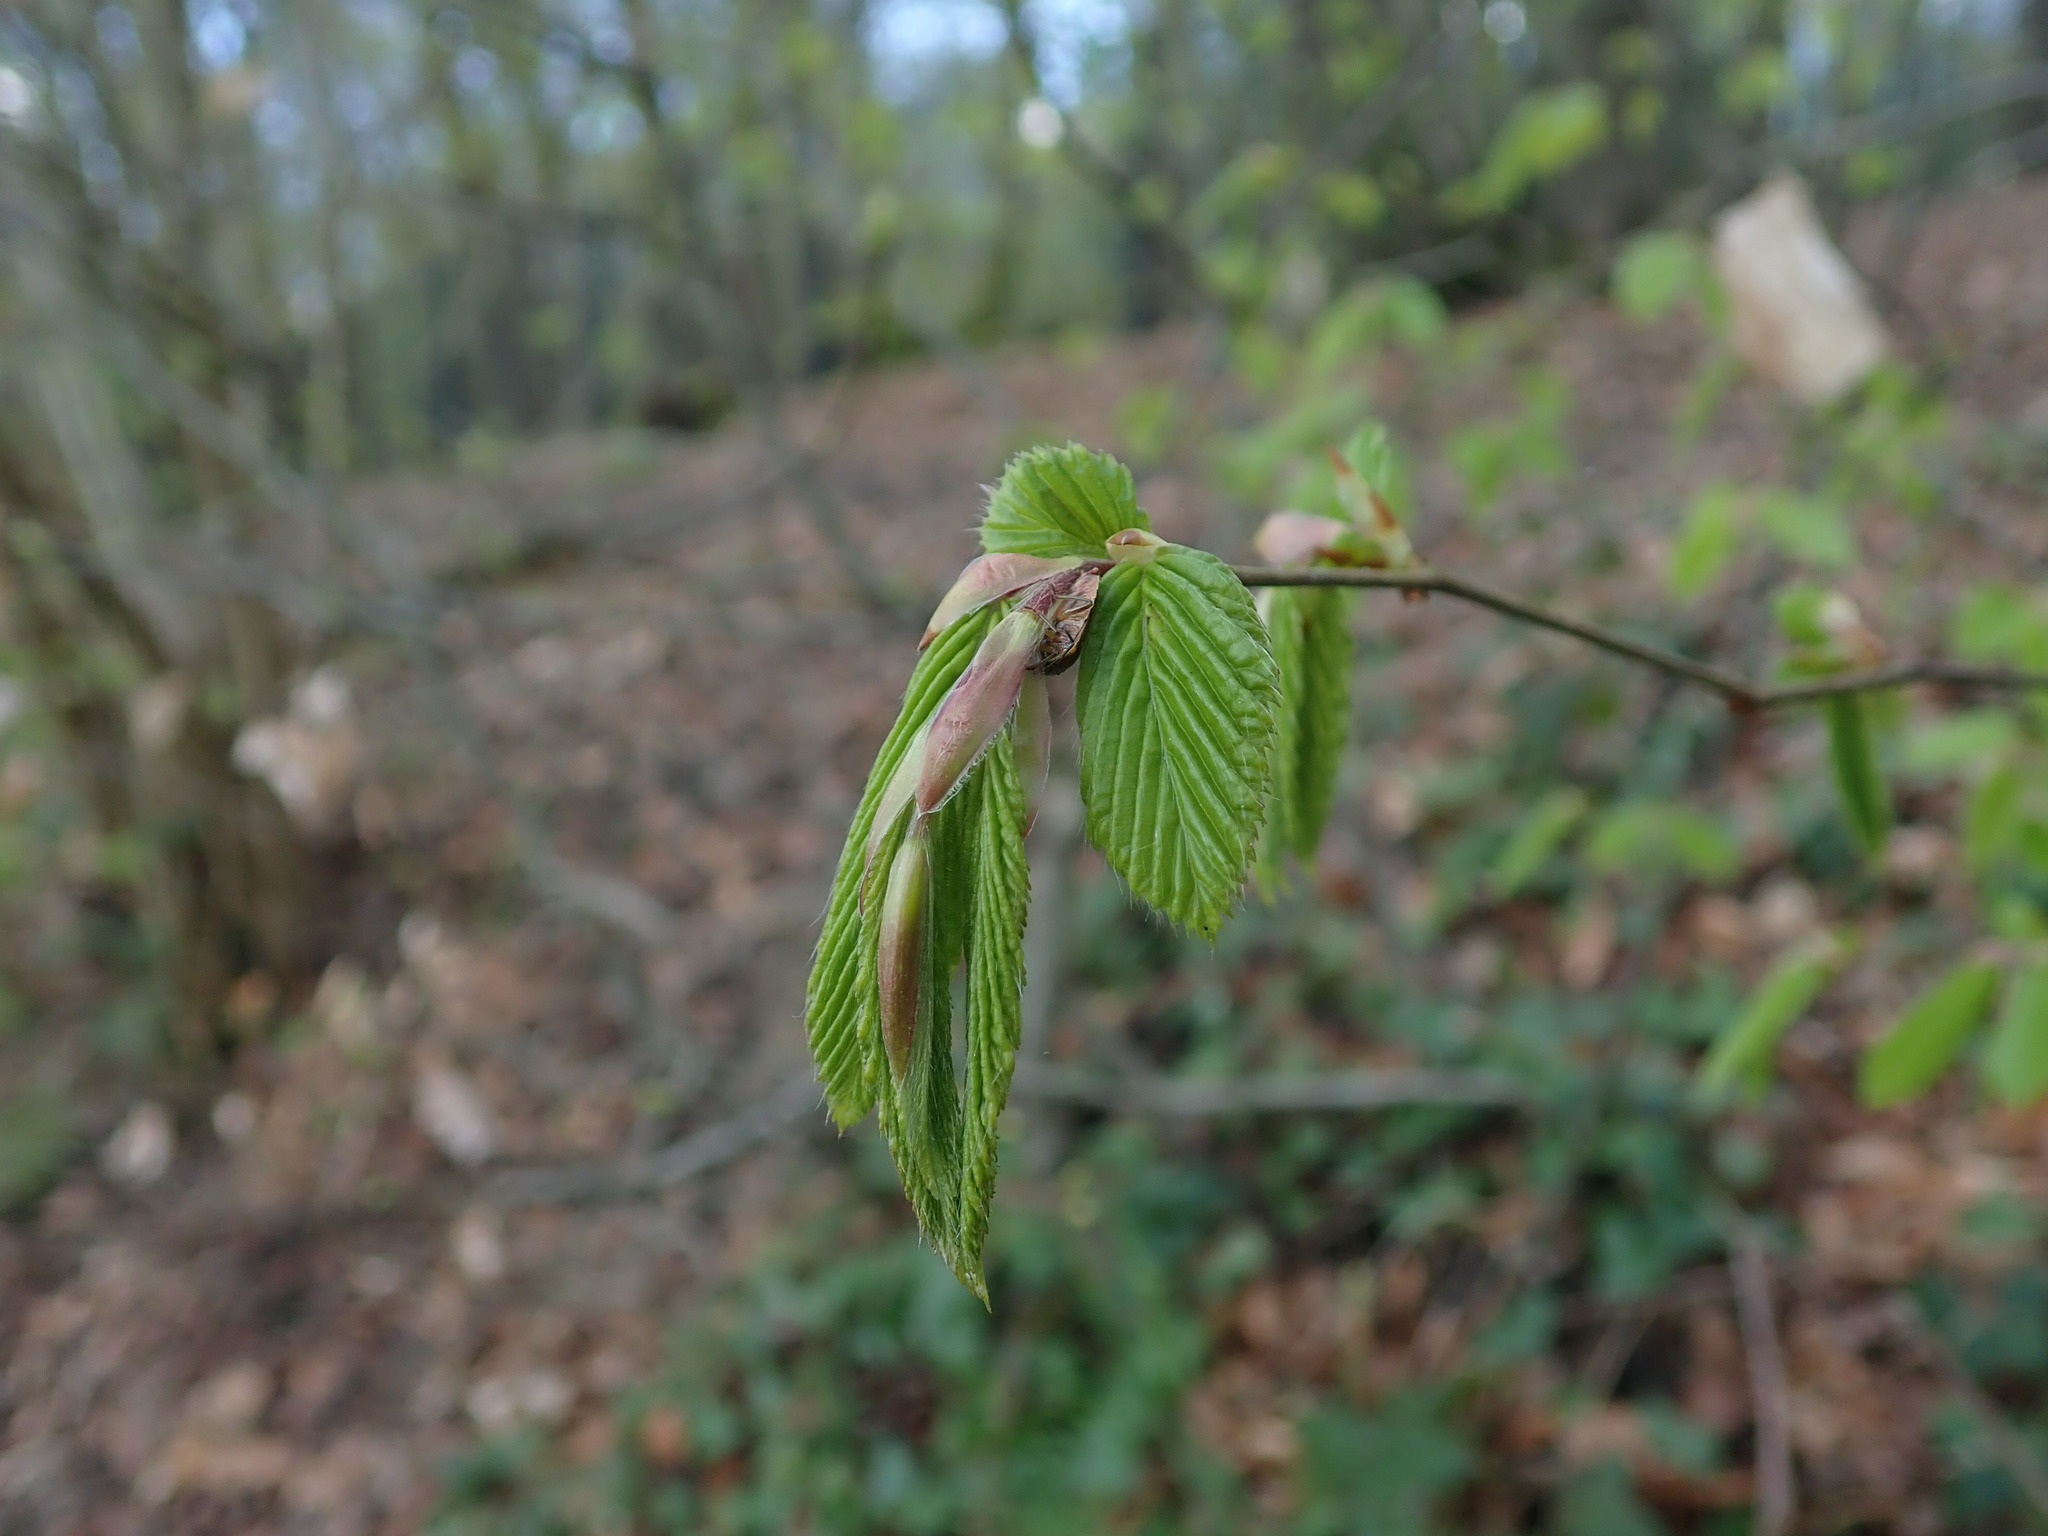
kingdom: Plantae
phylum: Tracheophyta
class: Magnoliopsida
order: Fagales
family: Betulaceae
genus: Carpinus
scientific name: Carpinus betulus
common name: Hornbeam
